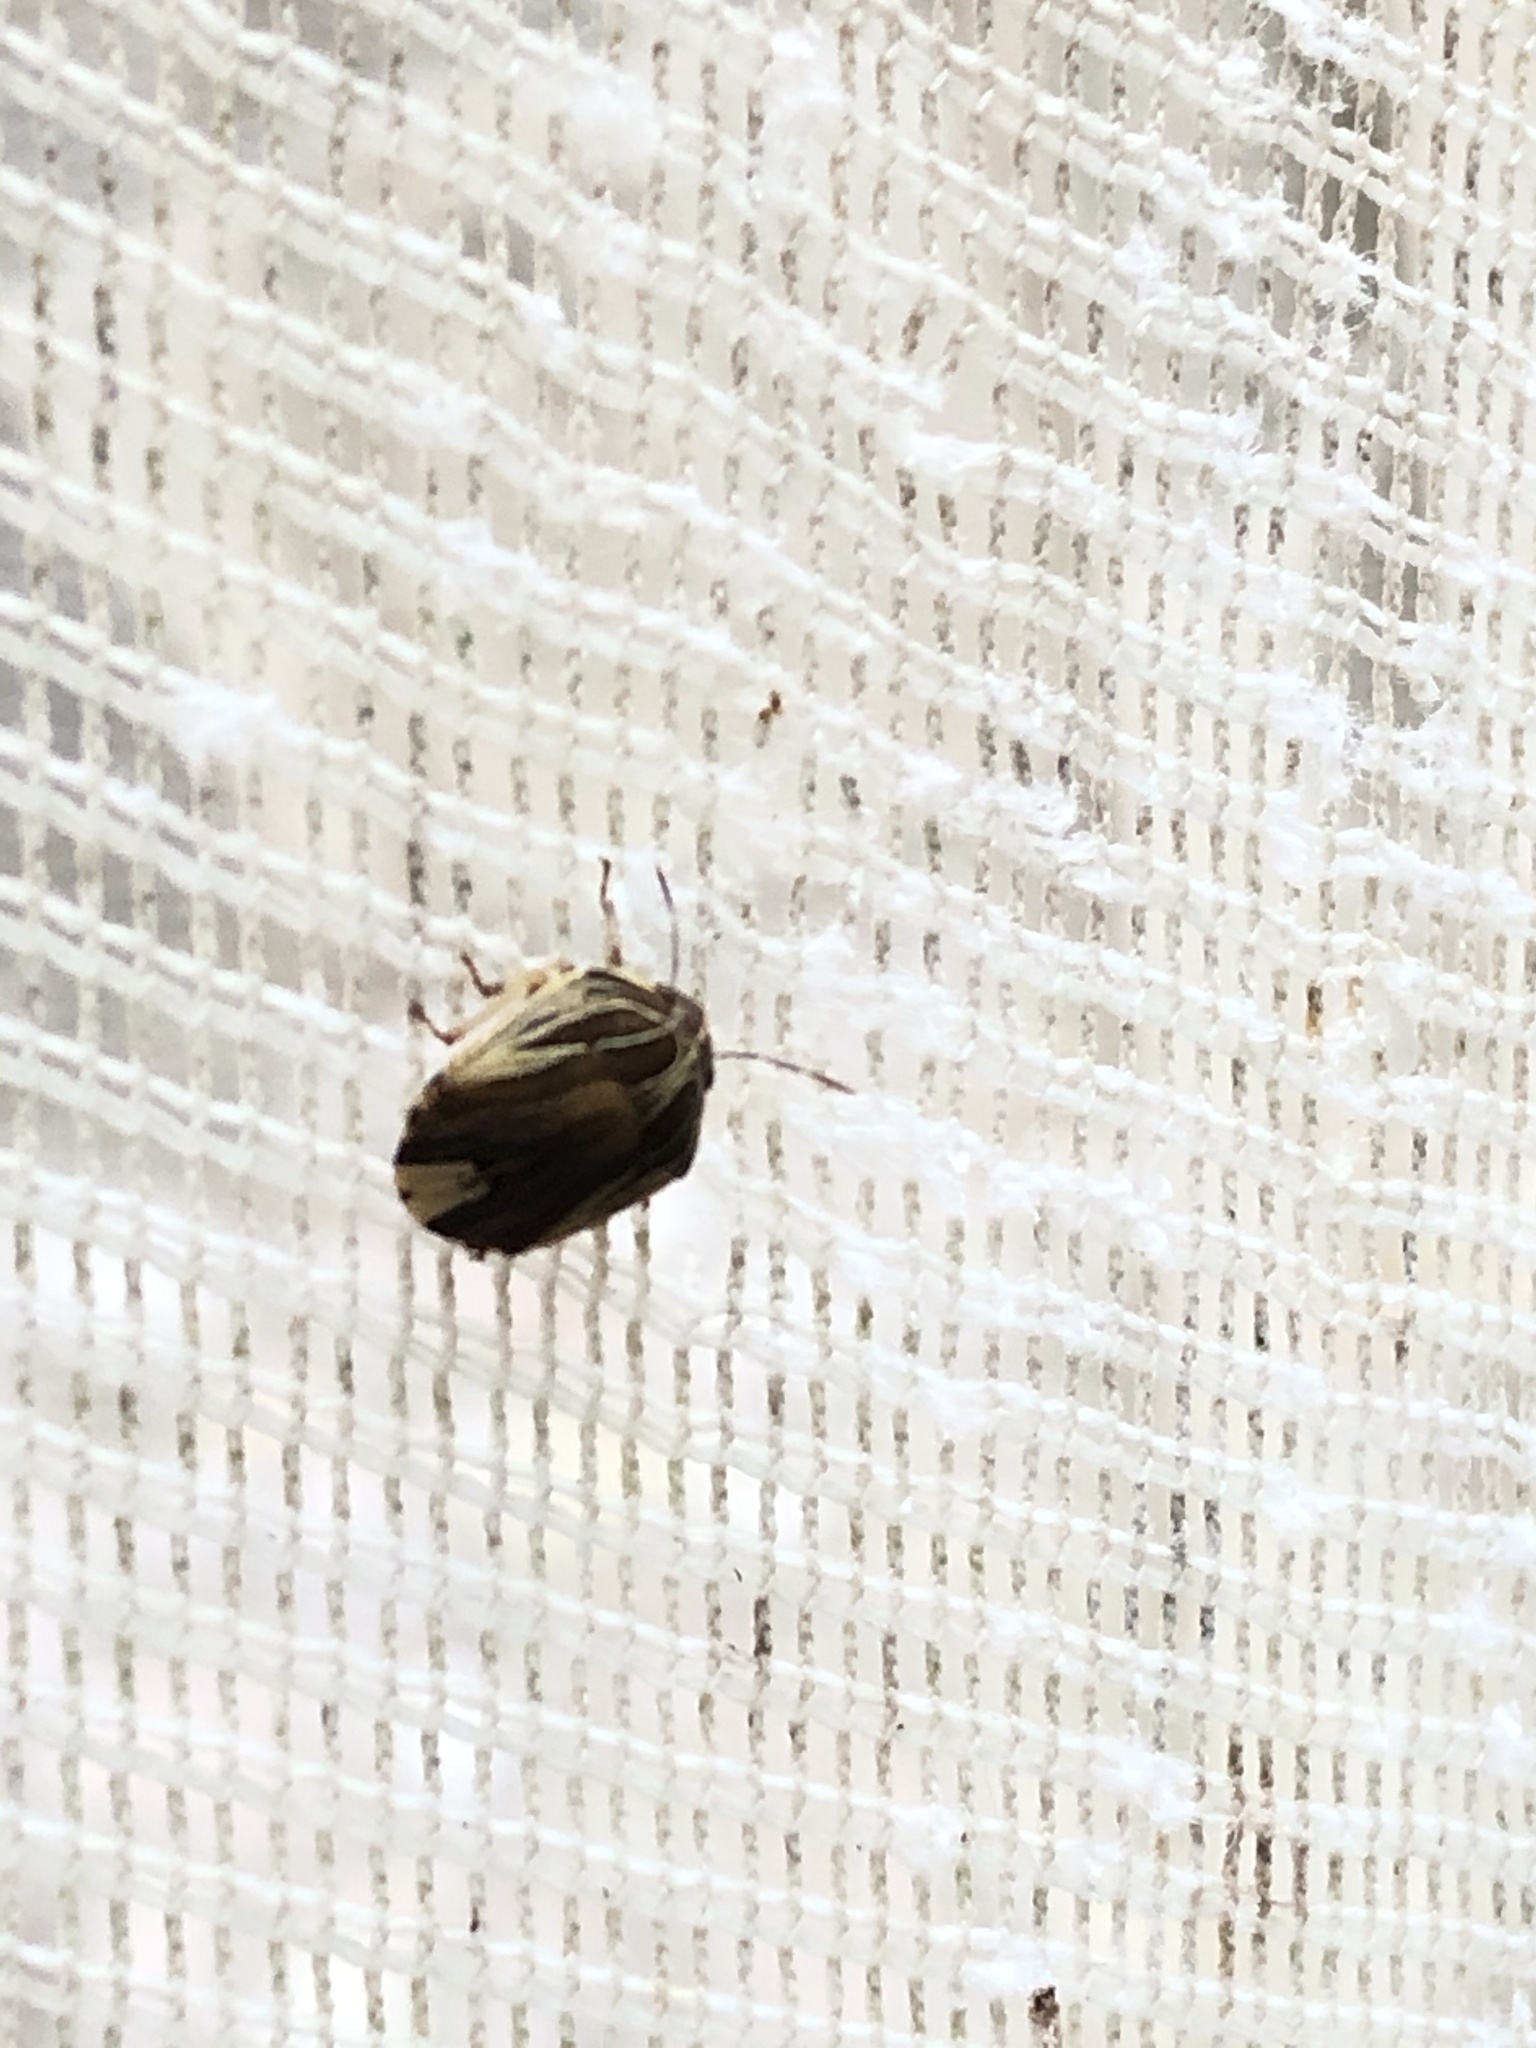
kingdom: Animalia
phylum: Arthropoda
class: Insecta
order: Hemiptera
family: Scutelleridae
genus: Symphylus
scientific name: Symphylus ramivitta
